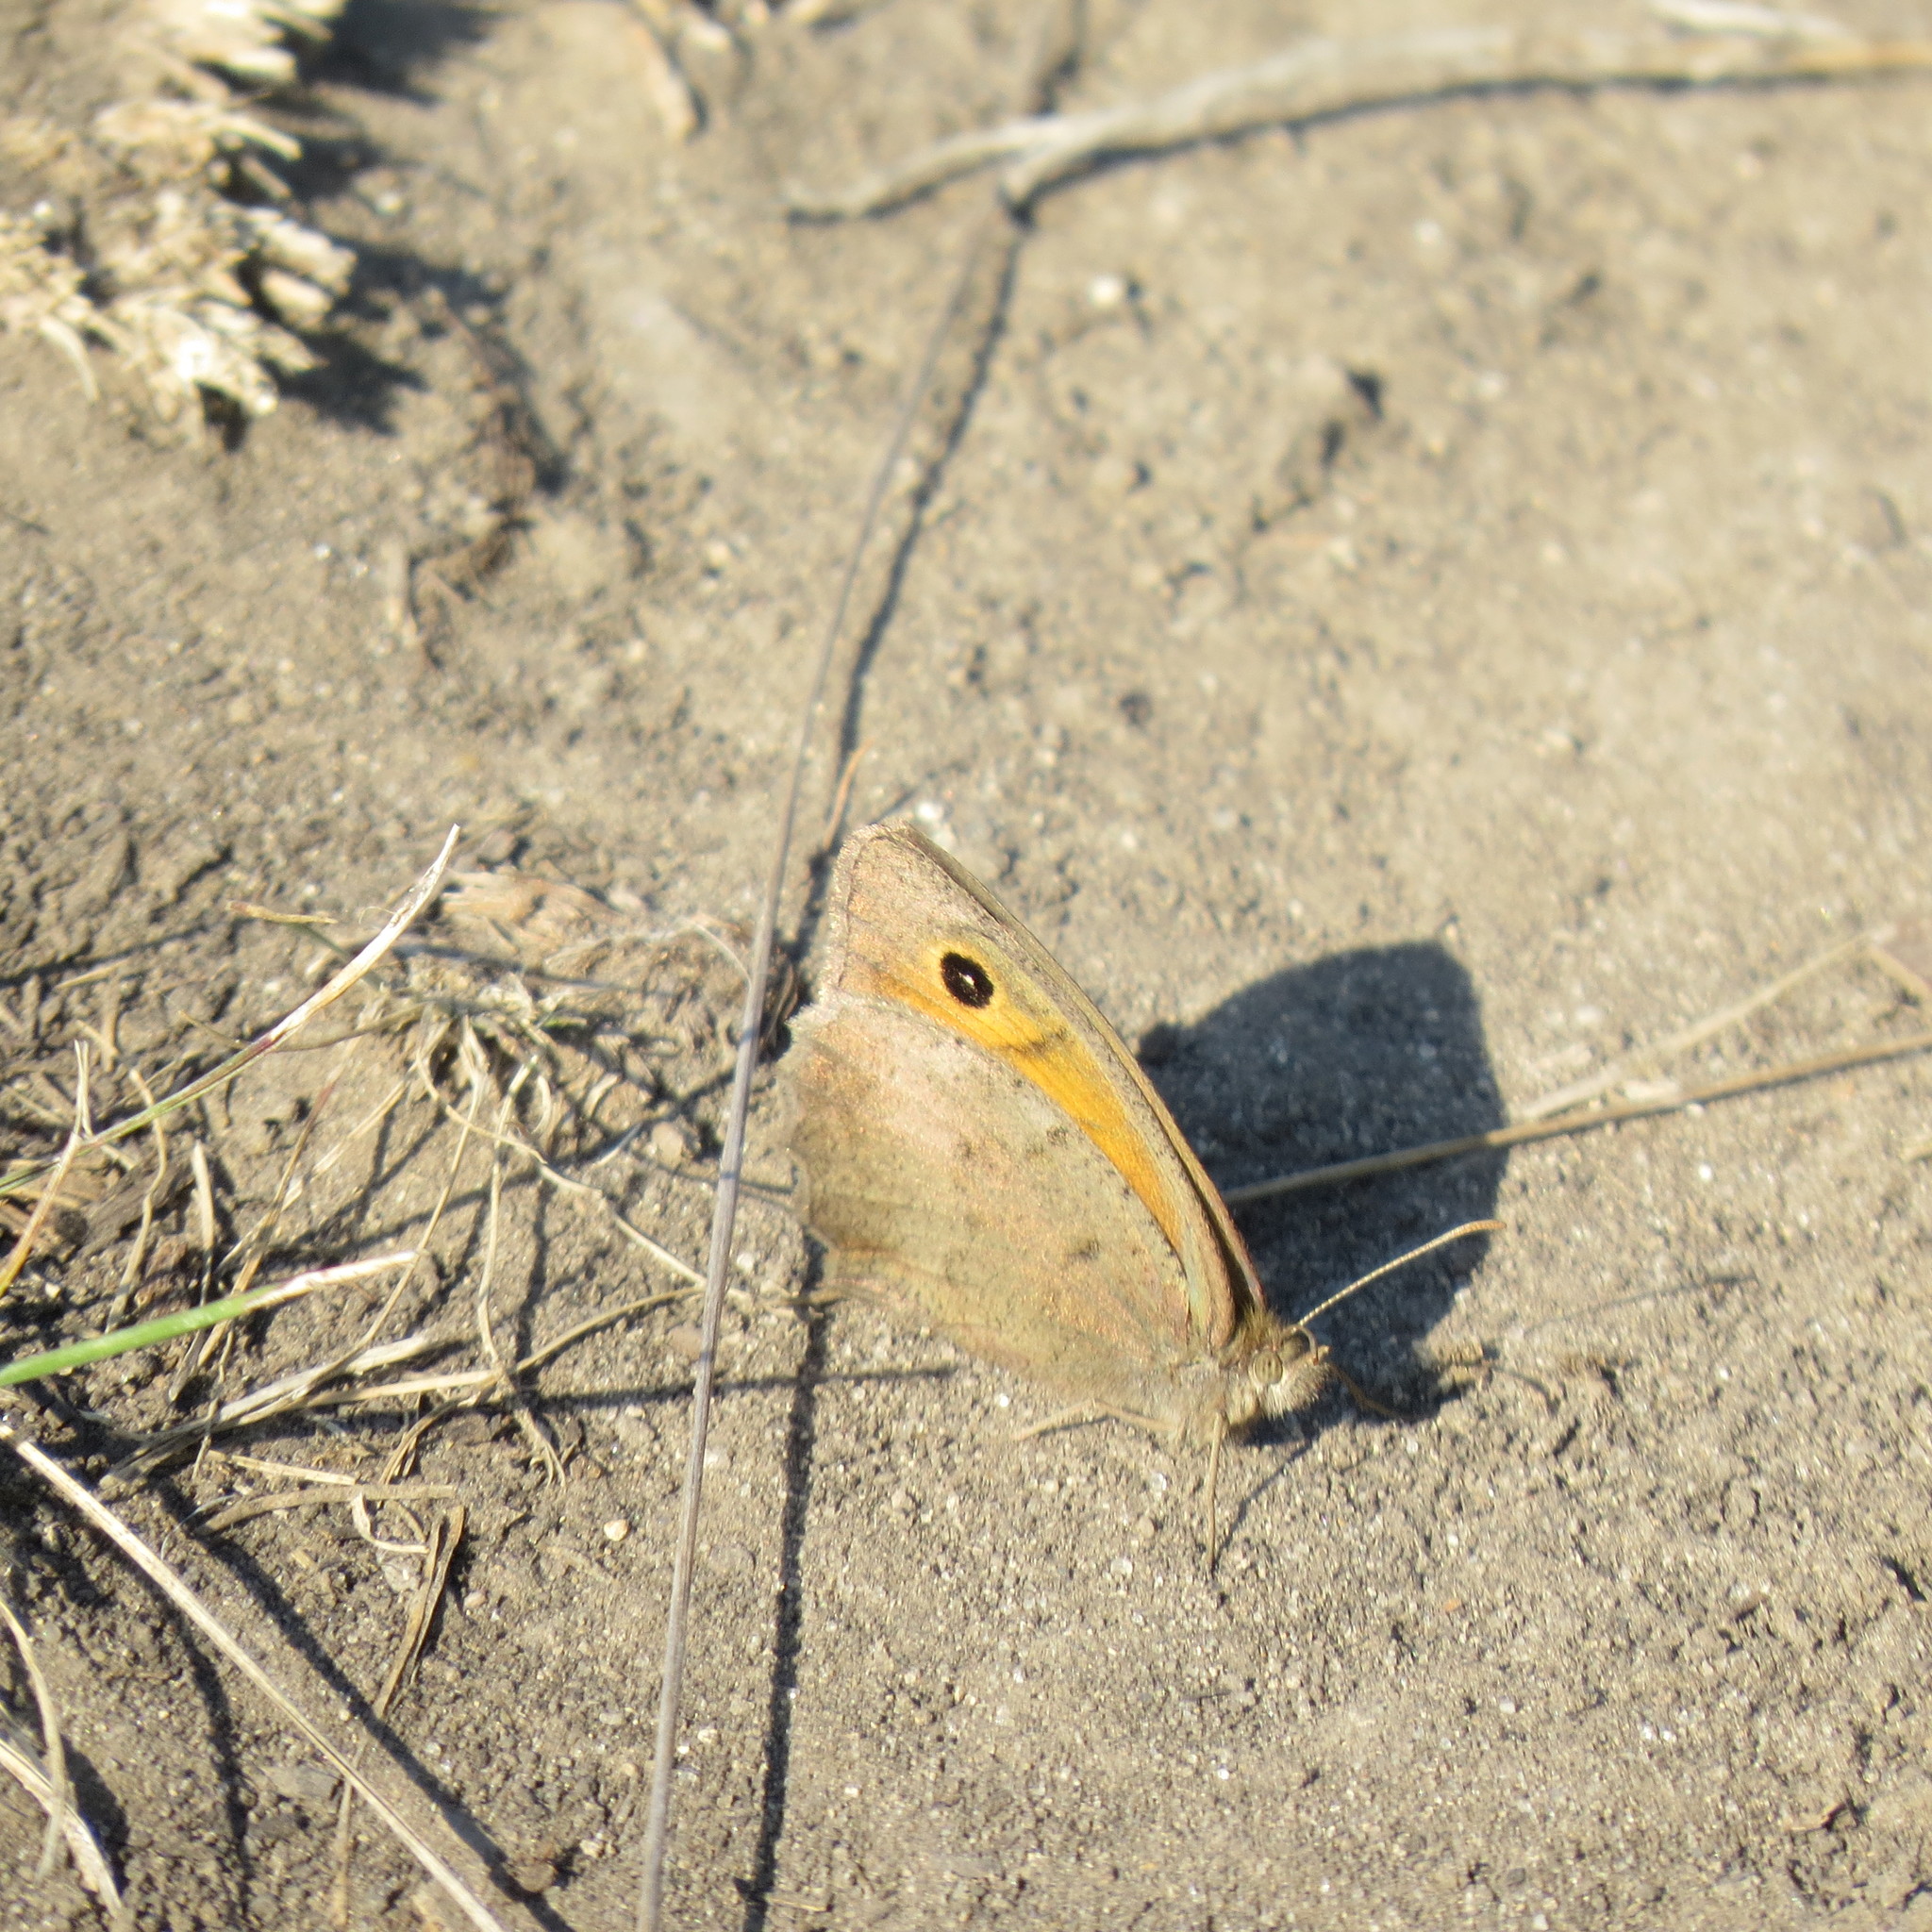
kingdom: Animalia
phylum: Arthropoda
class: Insecta
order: Lepidoptera
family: Nymphalidae
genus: Maniola
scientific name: Maniola jurtina
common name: Meadow brown
